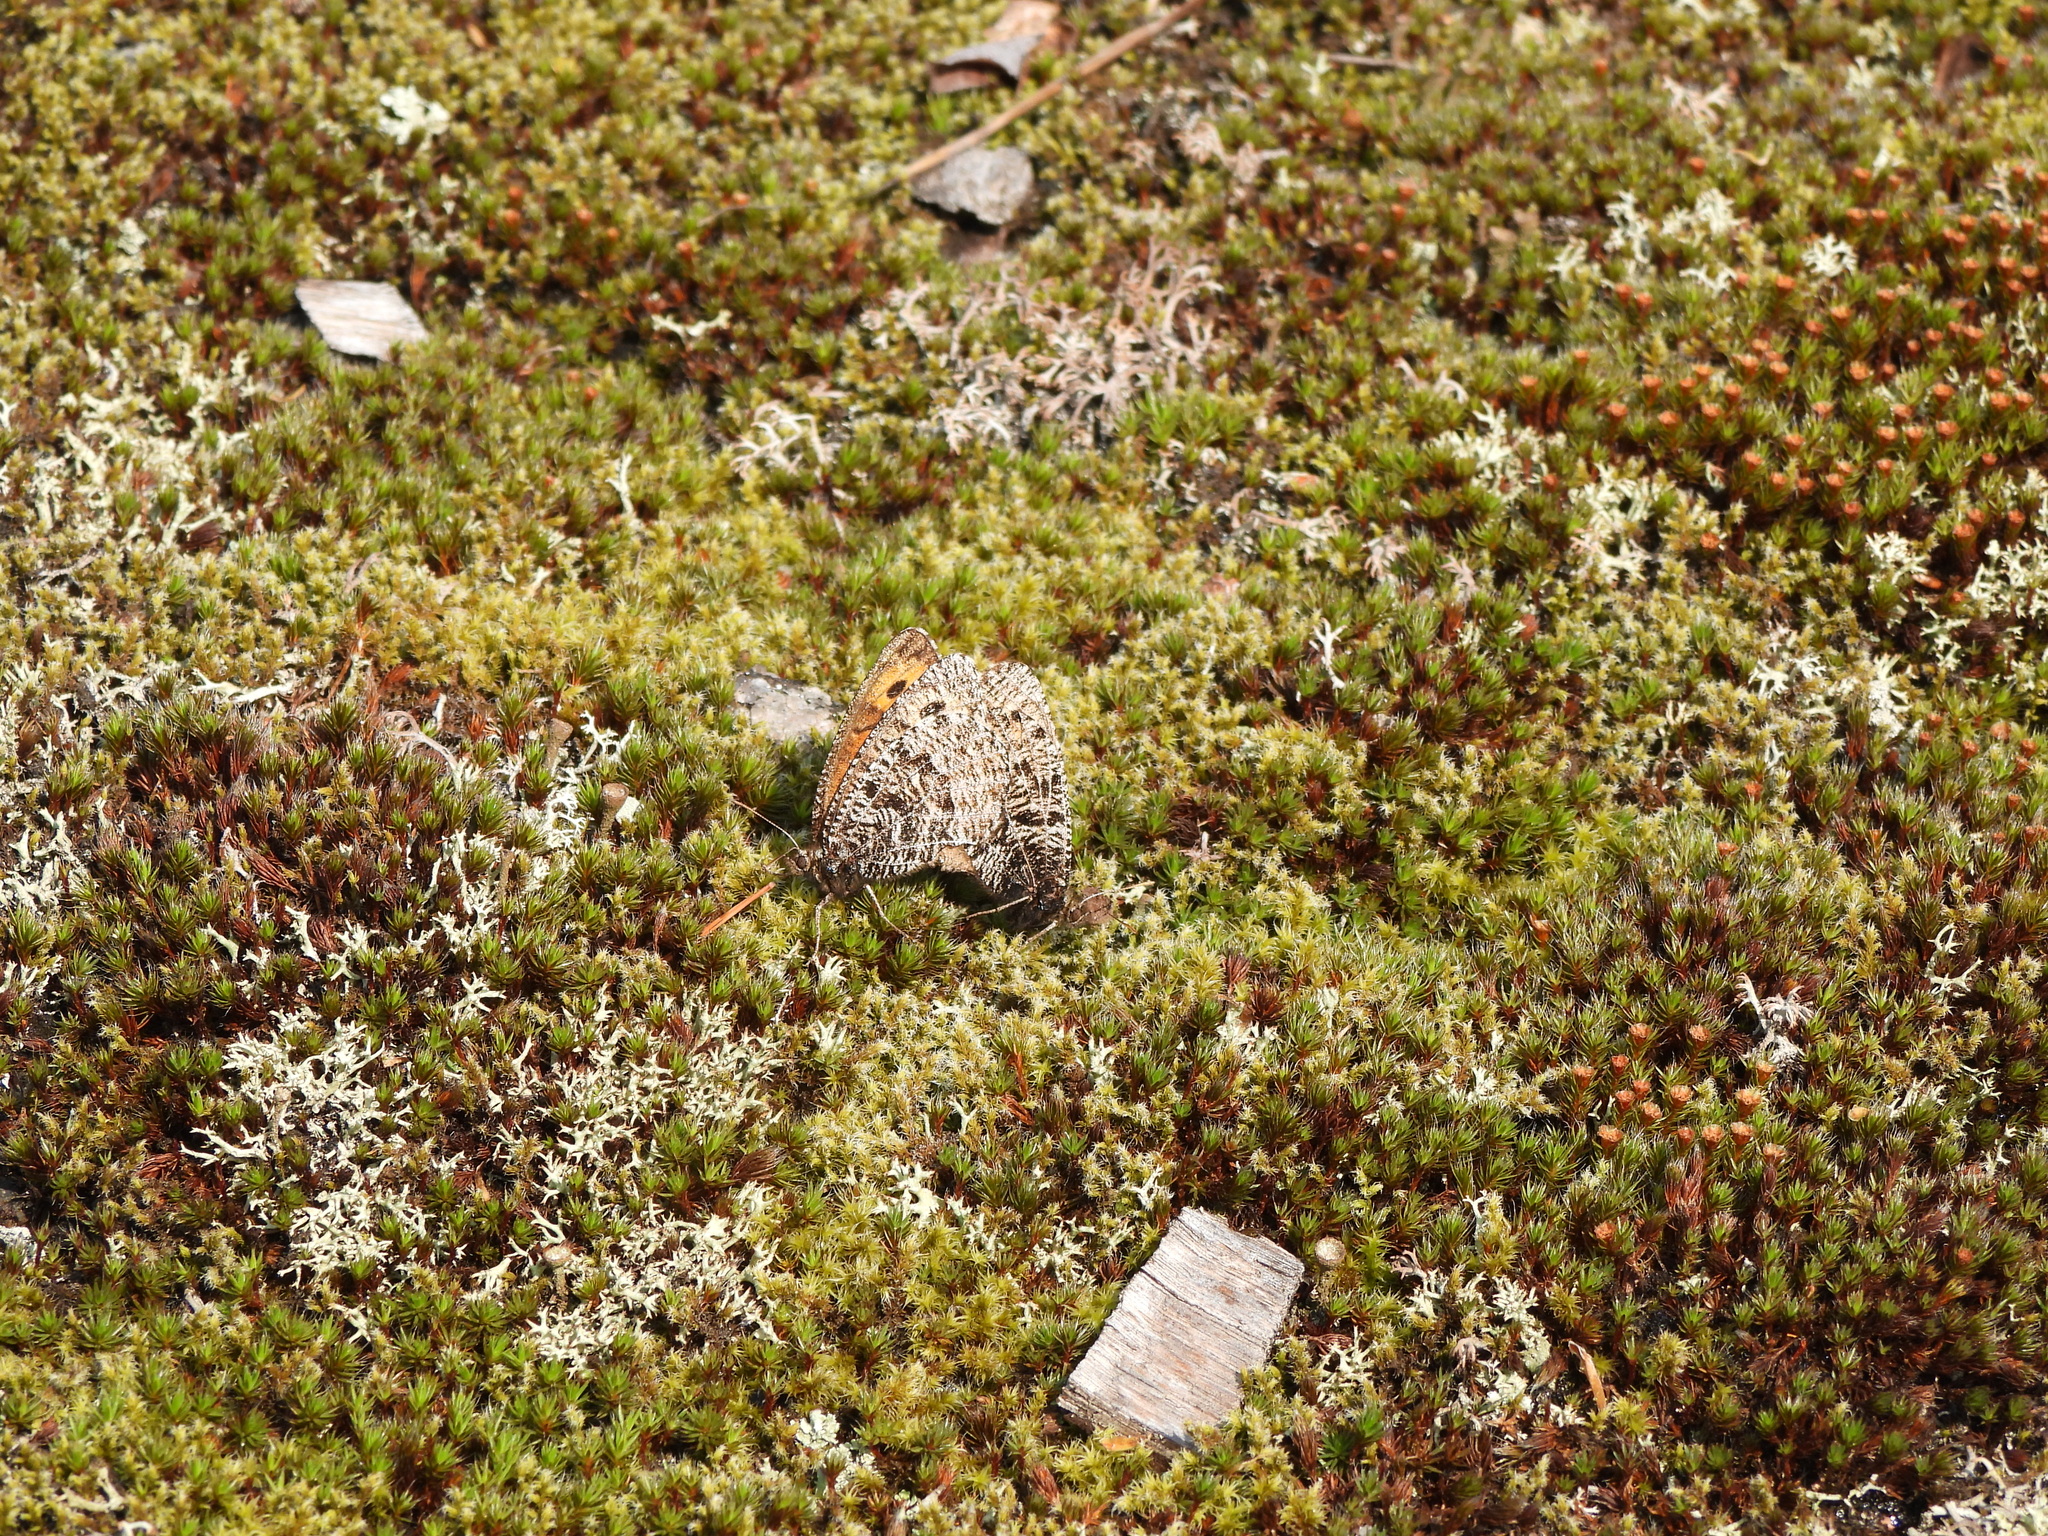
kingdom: Animalia
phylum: Arthropoda
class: Insecta
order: Lepidoptera
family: Nymphalidae
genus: Oeneis
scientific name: Oeneis chryxus
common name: Chryxus arctic
